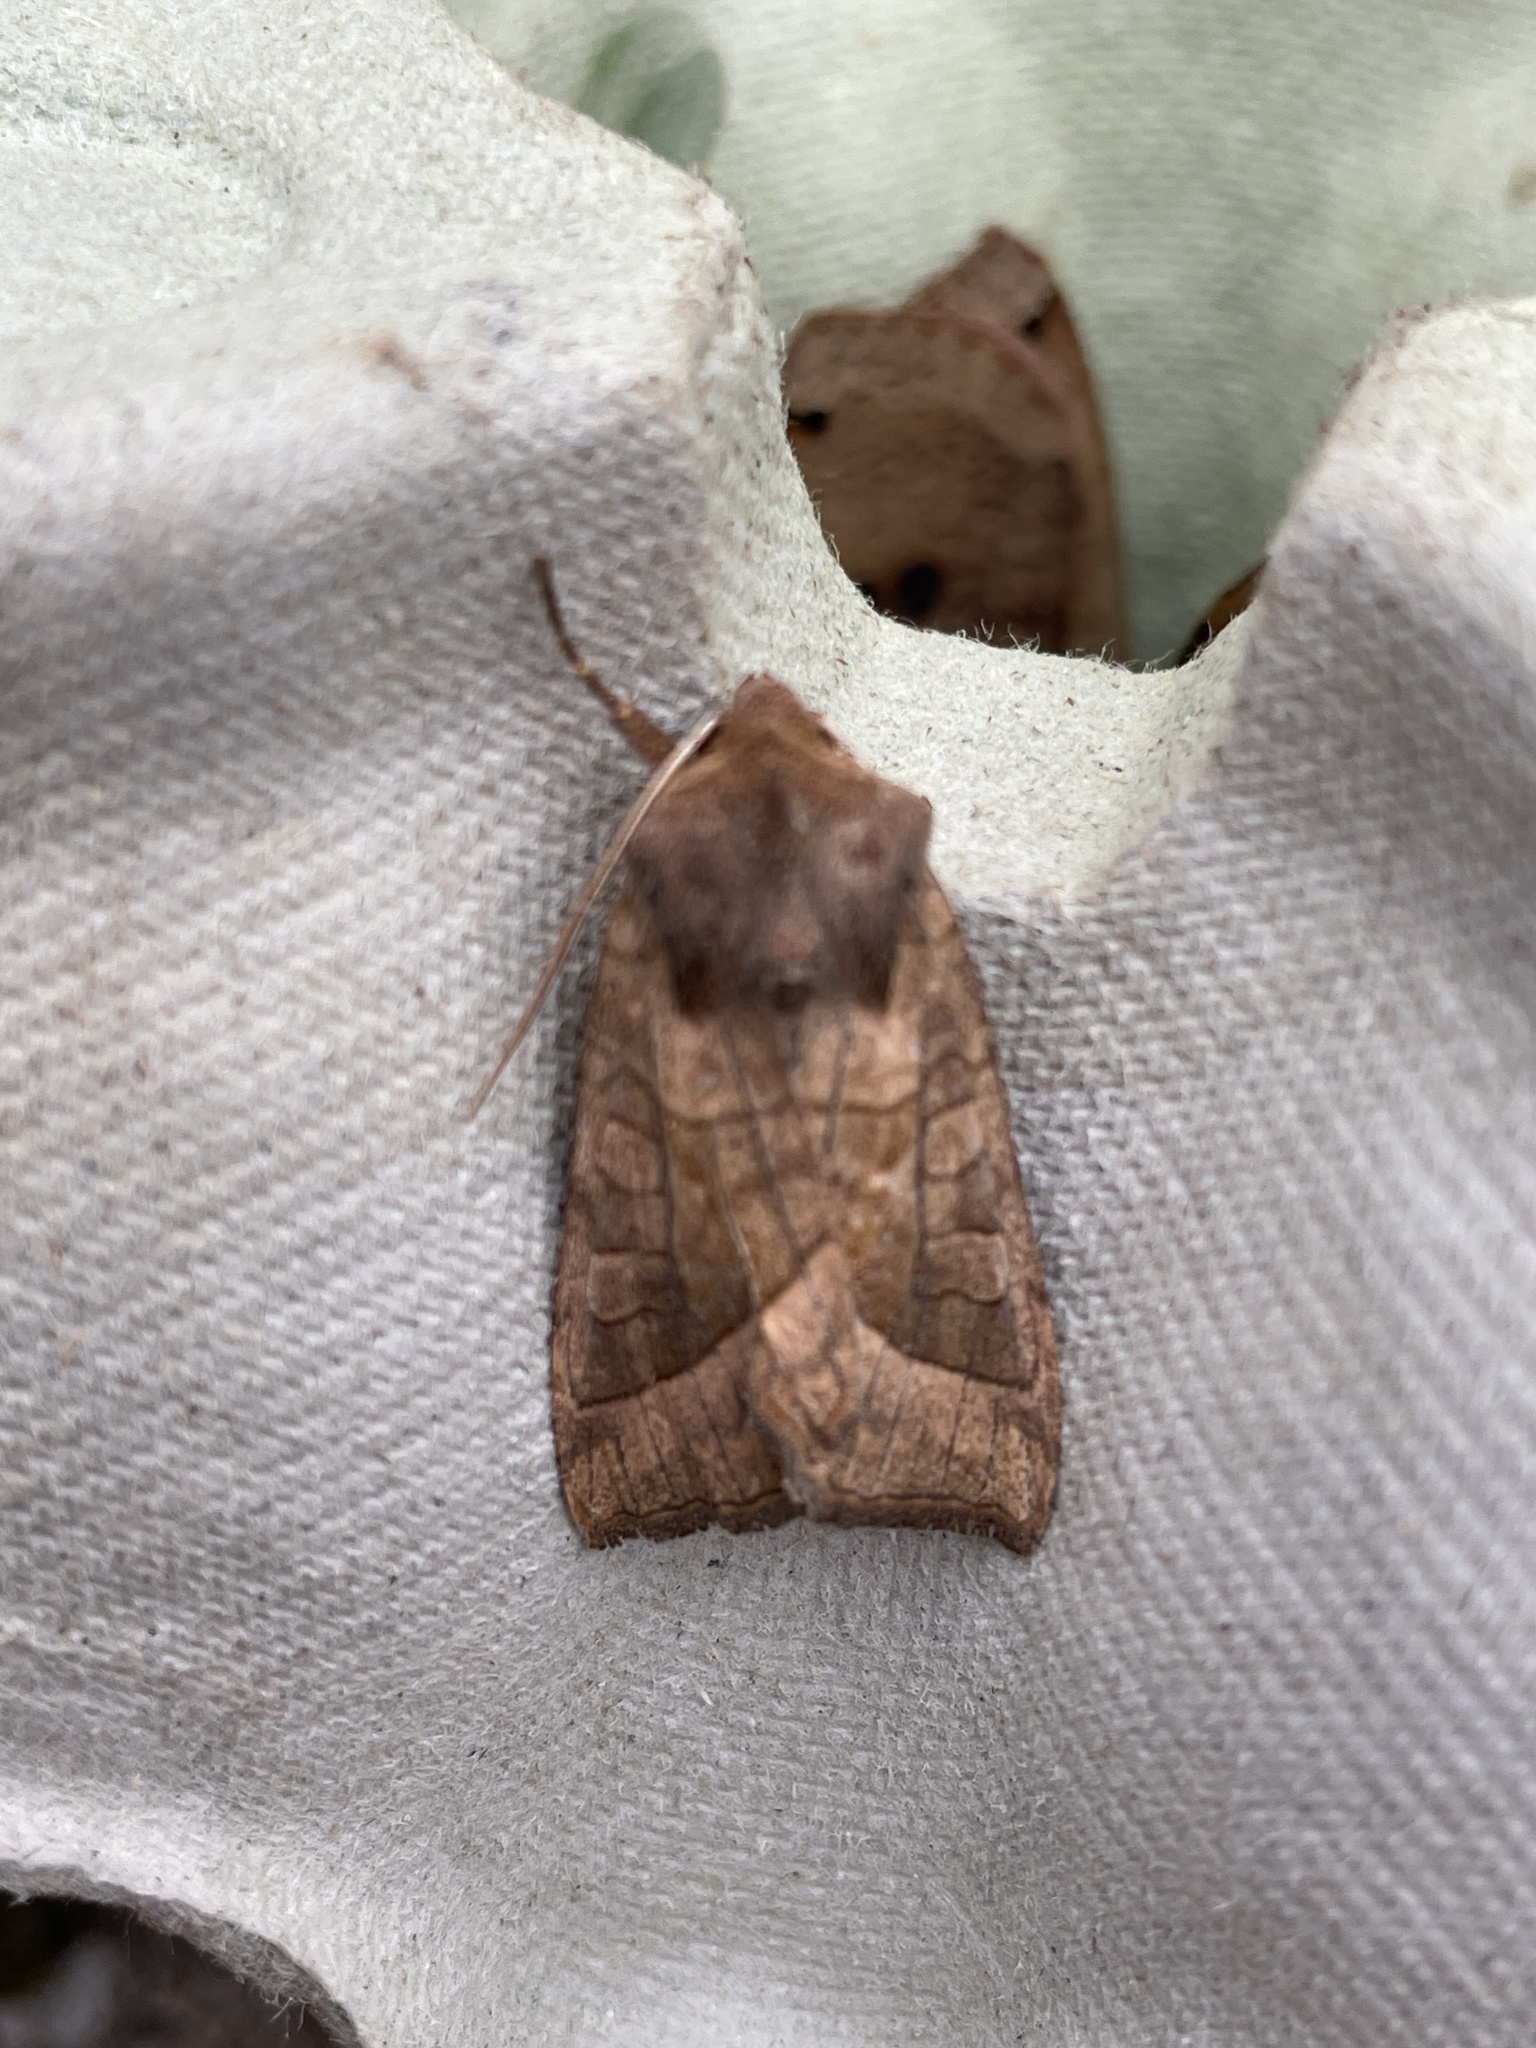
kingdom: Animalia
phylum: Arthropoda
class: Insecta
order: Lepidoptera
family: Noctuidae
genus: Hydraecia
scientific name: Hydraecia micacea
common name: Rosy rustic
